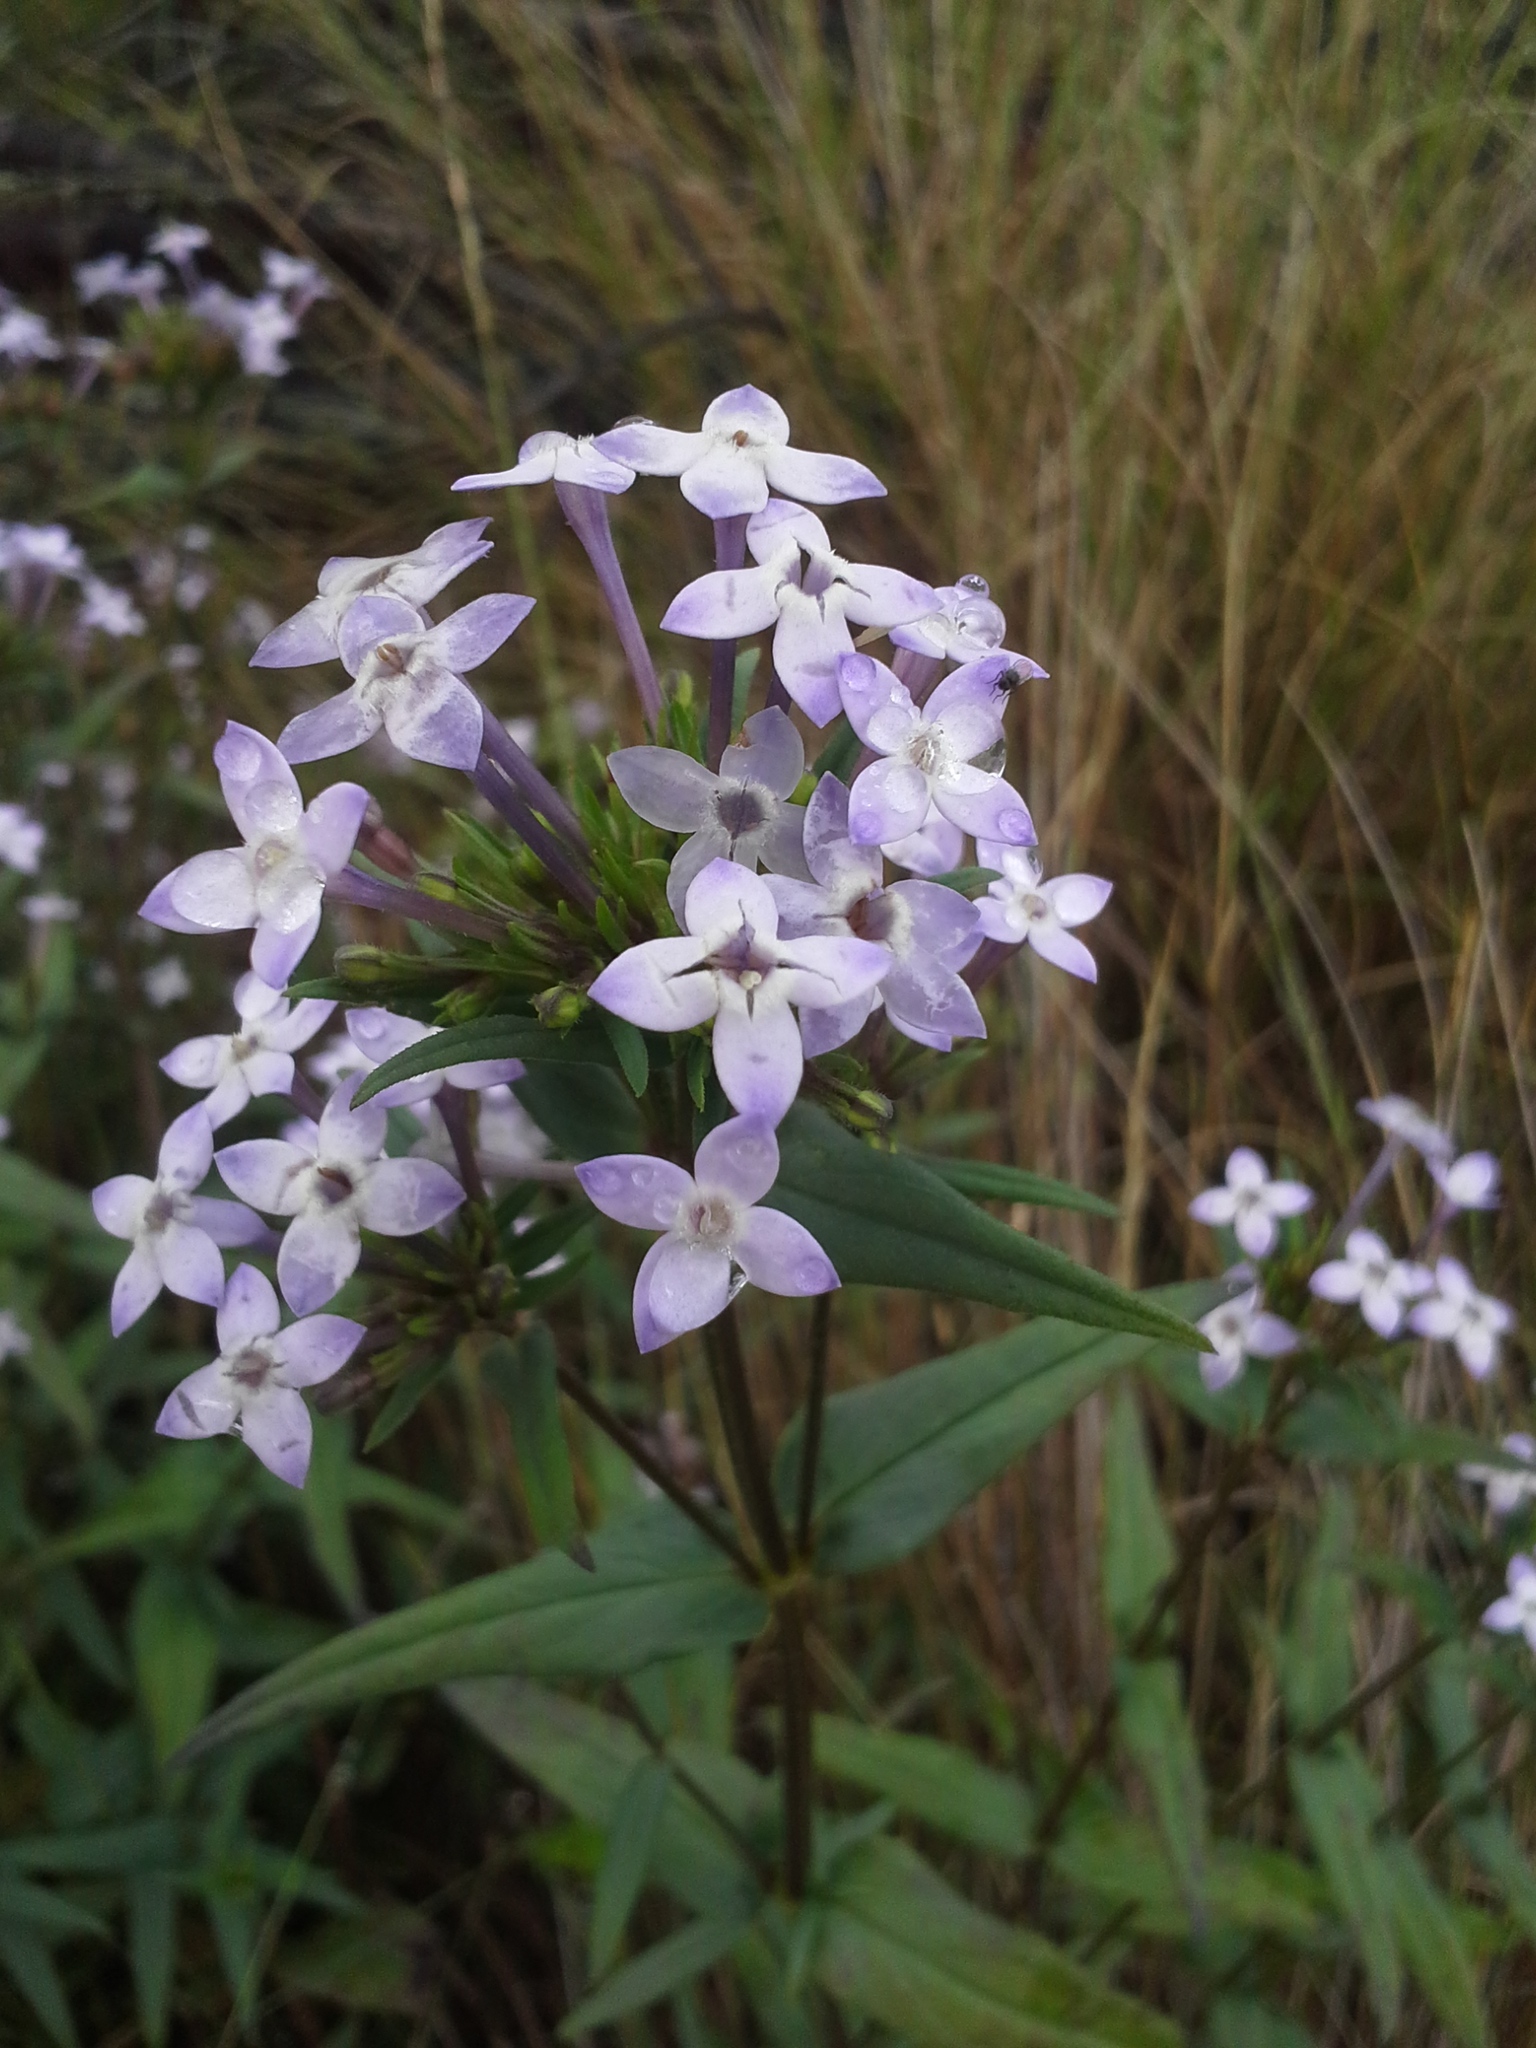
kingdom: Plantae
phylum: Tracheophyta
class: Magnoliopsida
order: Gentianales
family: Rubiaceae
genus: Conostomium
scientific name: Conostomium natalense
